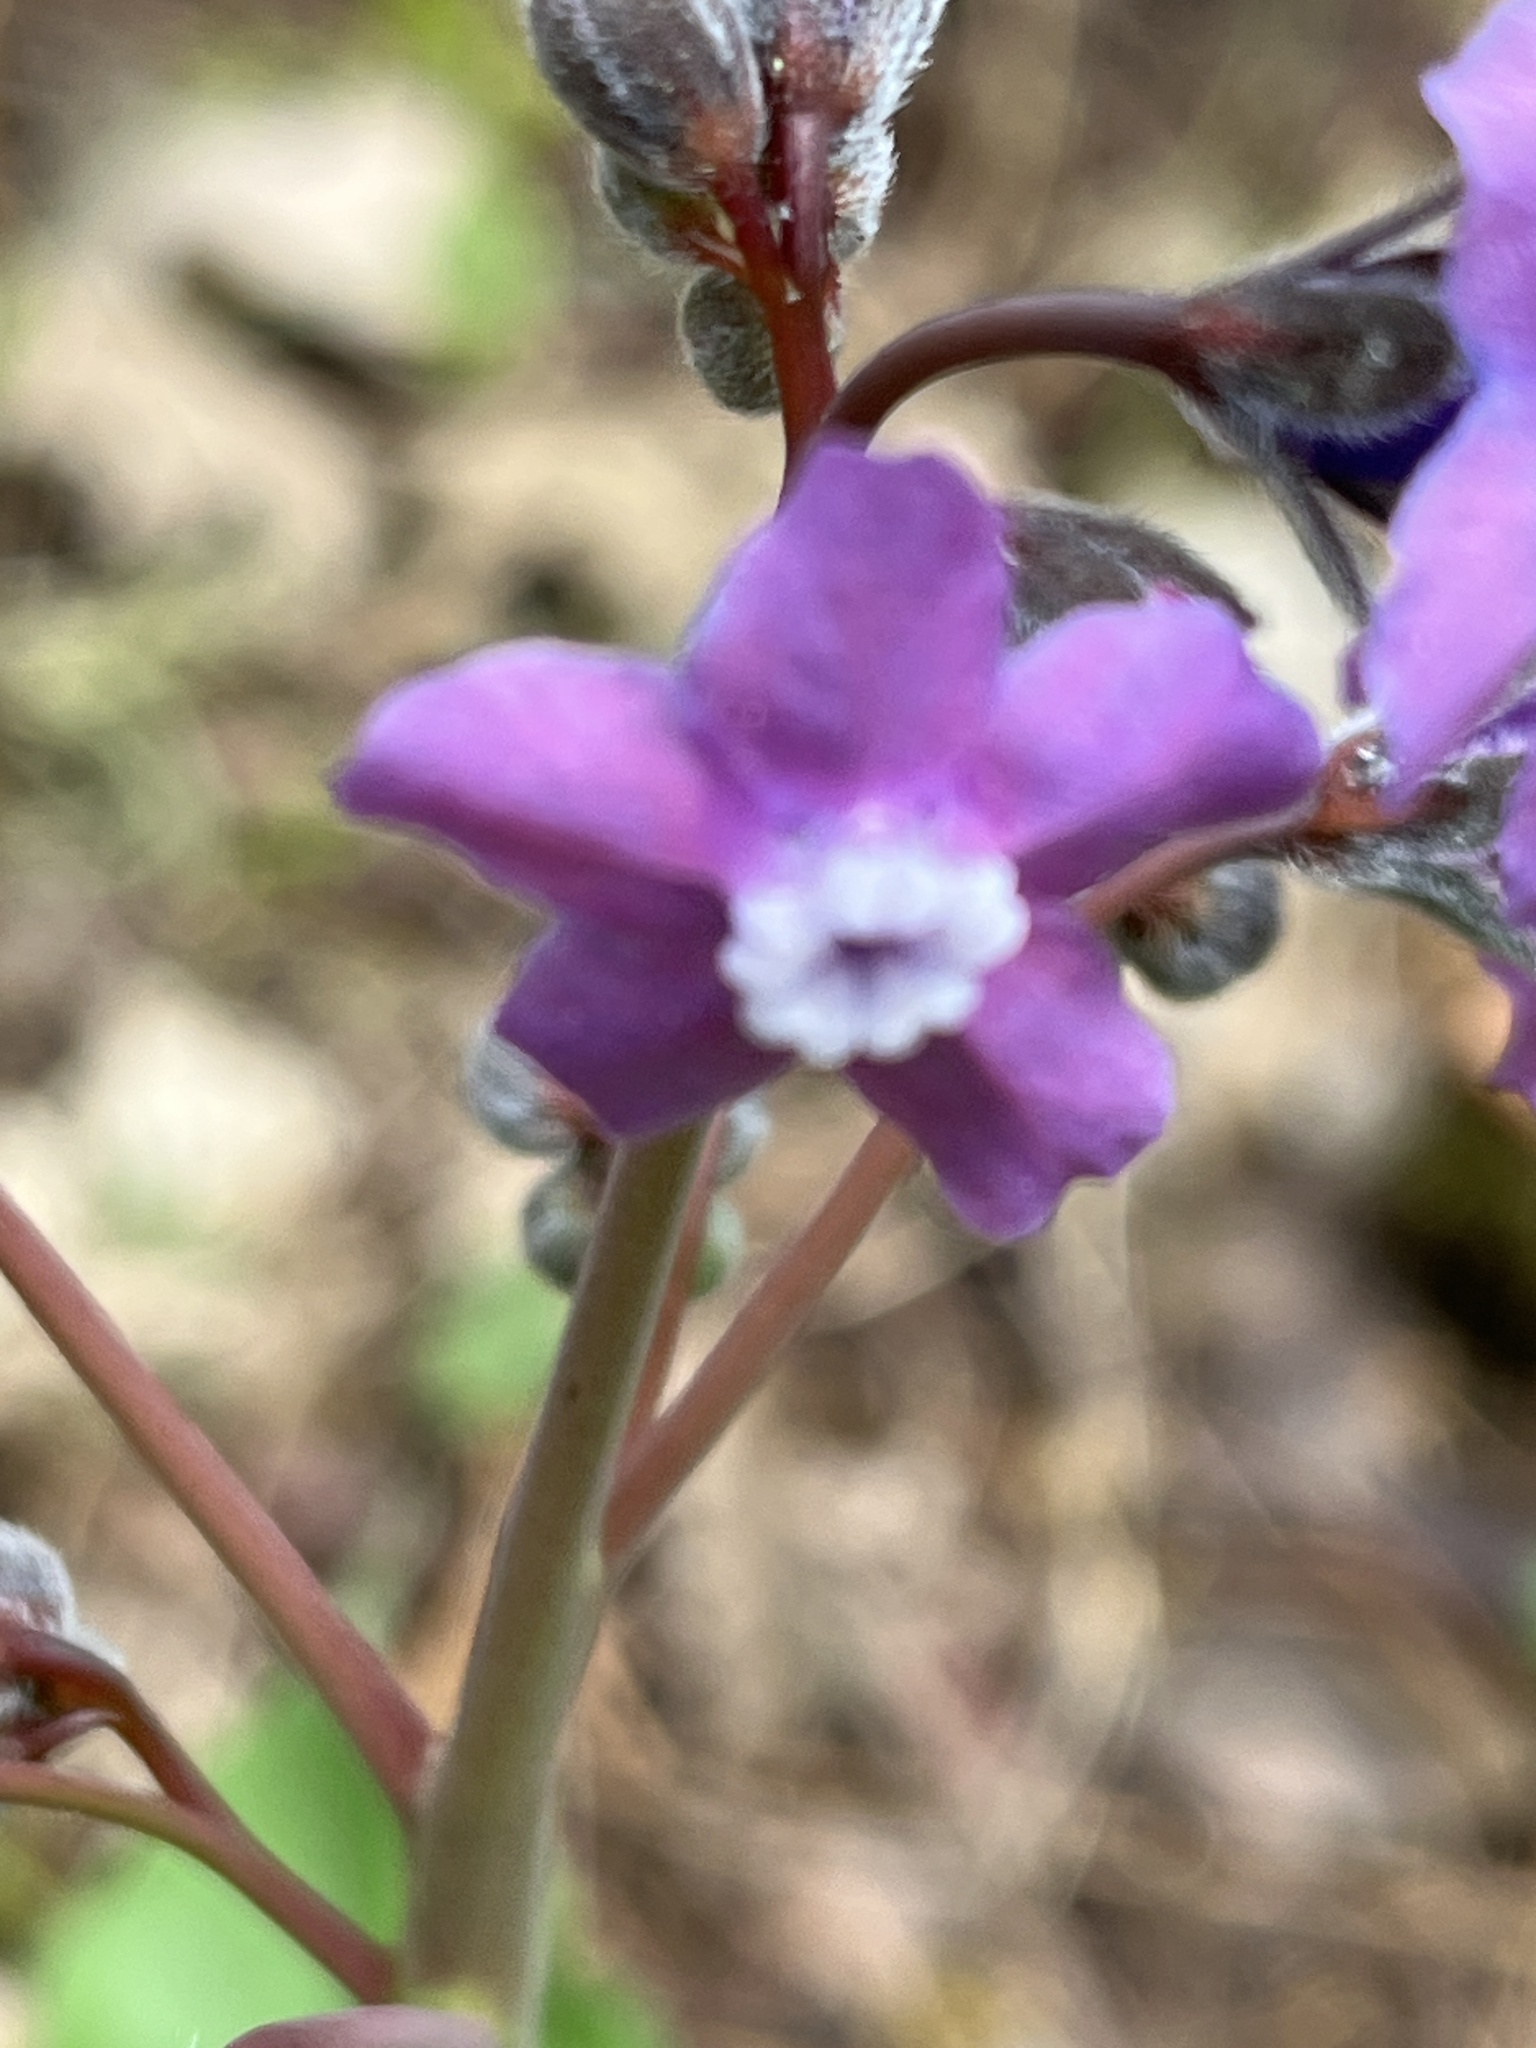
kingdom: Plantae
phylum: Tracheophyta
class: Magnoliopsida
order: Boraginales
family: Boraginaceae
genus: Adelinia
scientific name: Adelinia grande
